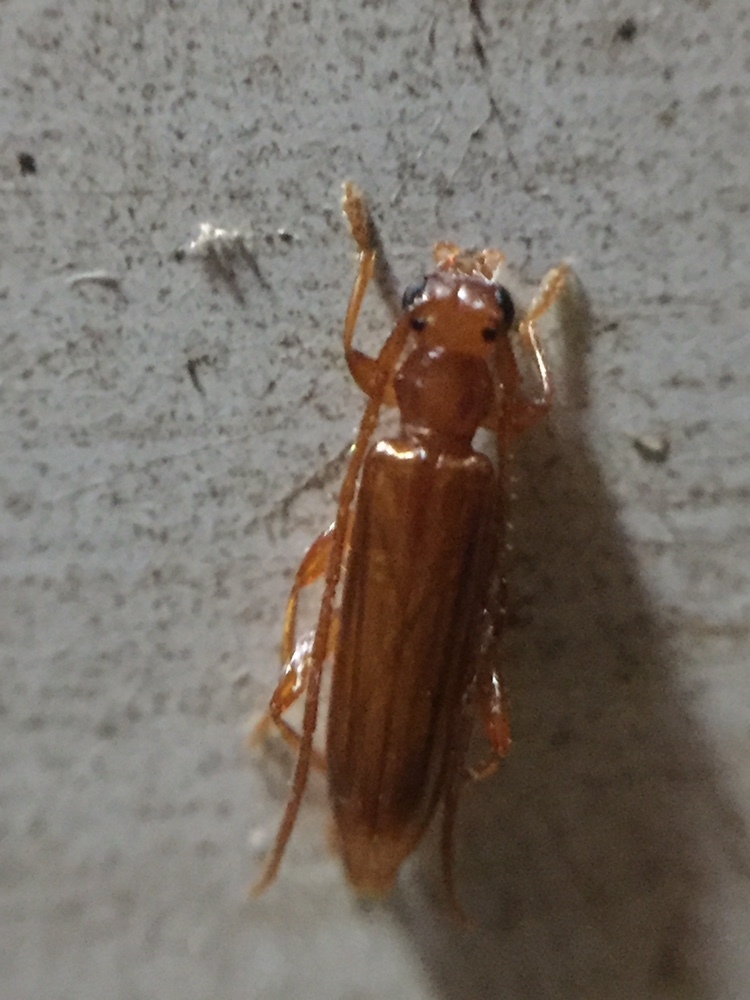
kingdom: Animalia
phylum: Arthropoda
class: Insecta
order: Coleoptera
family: Cerambycidae
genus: Astetholea
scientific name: Astetholea pauper
